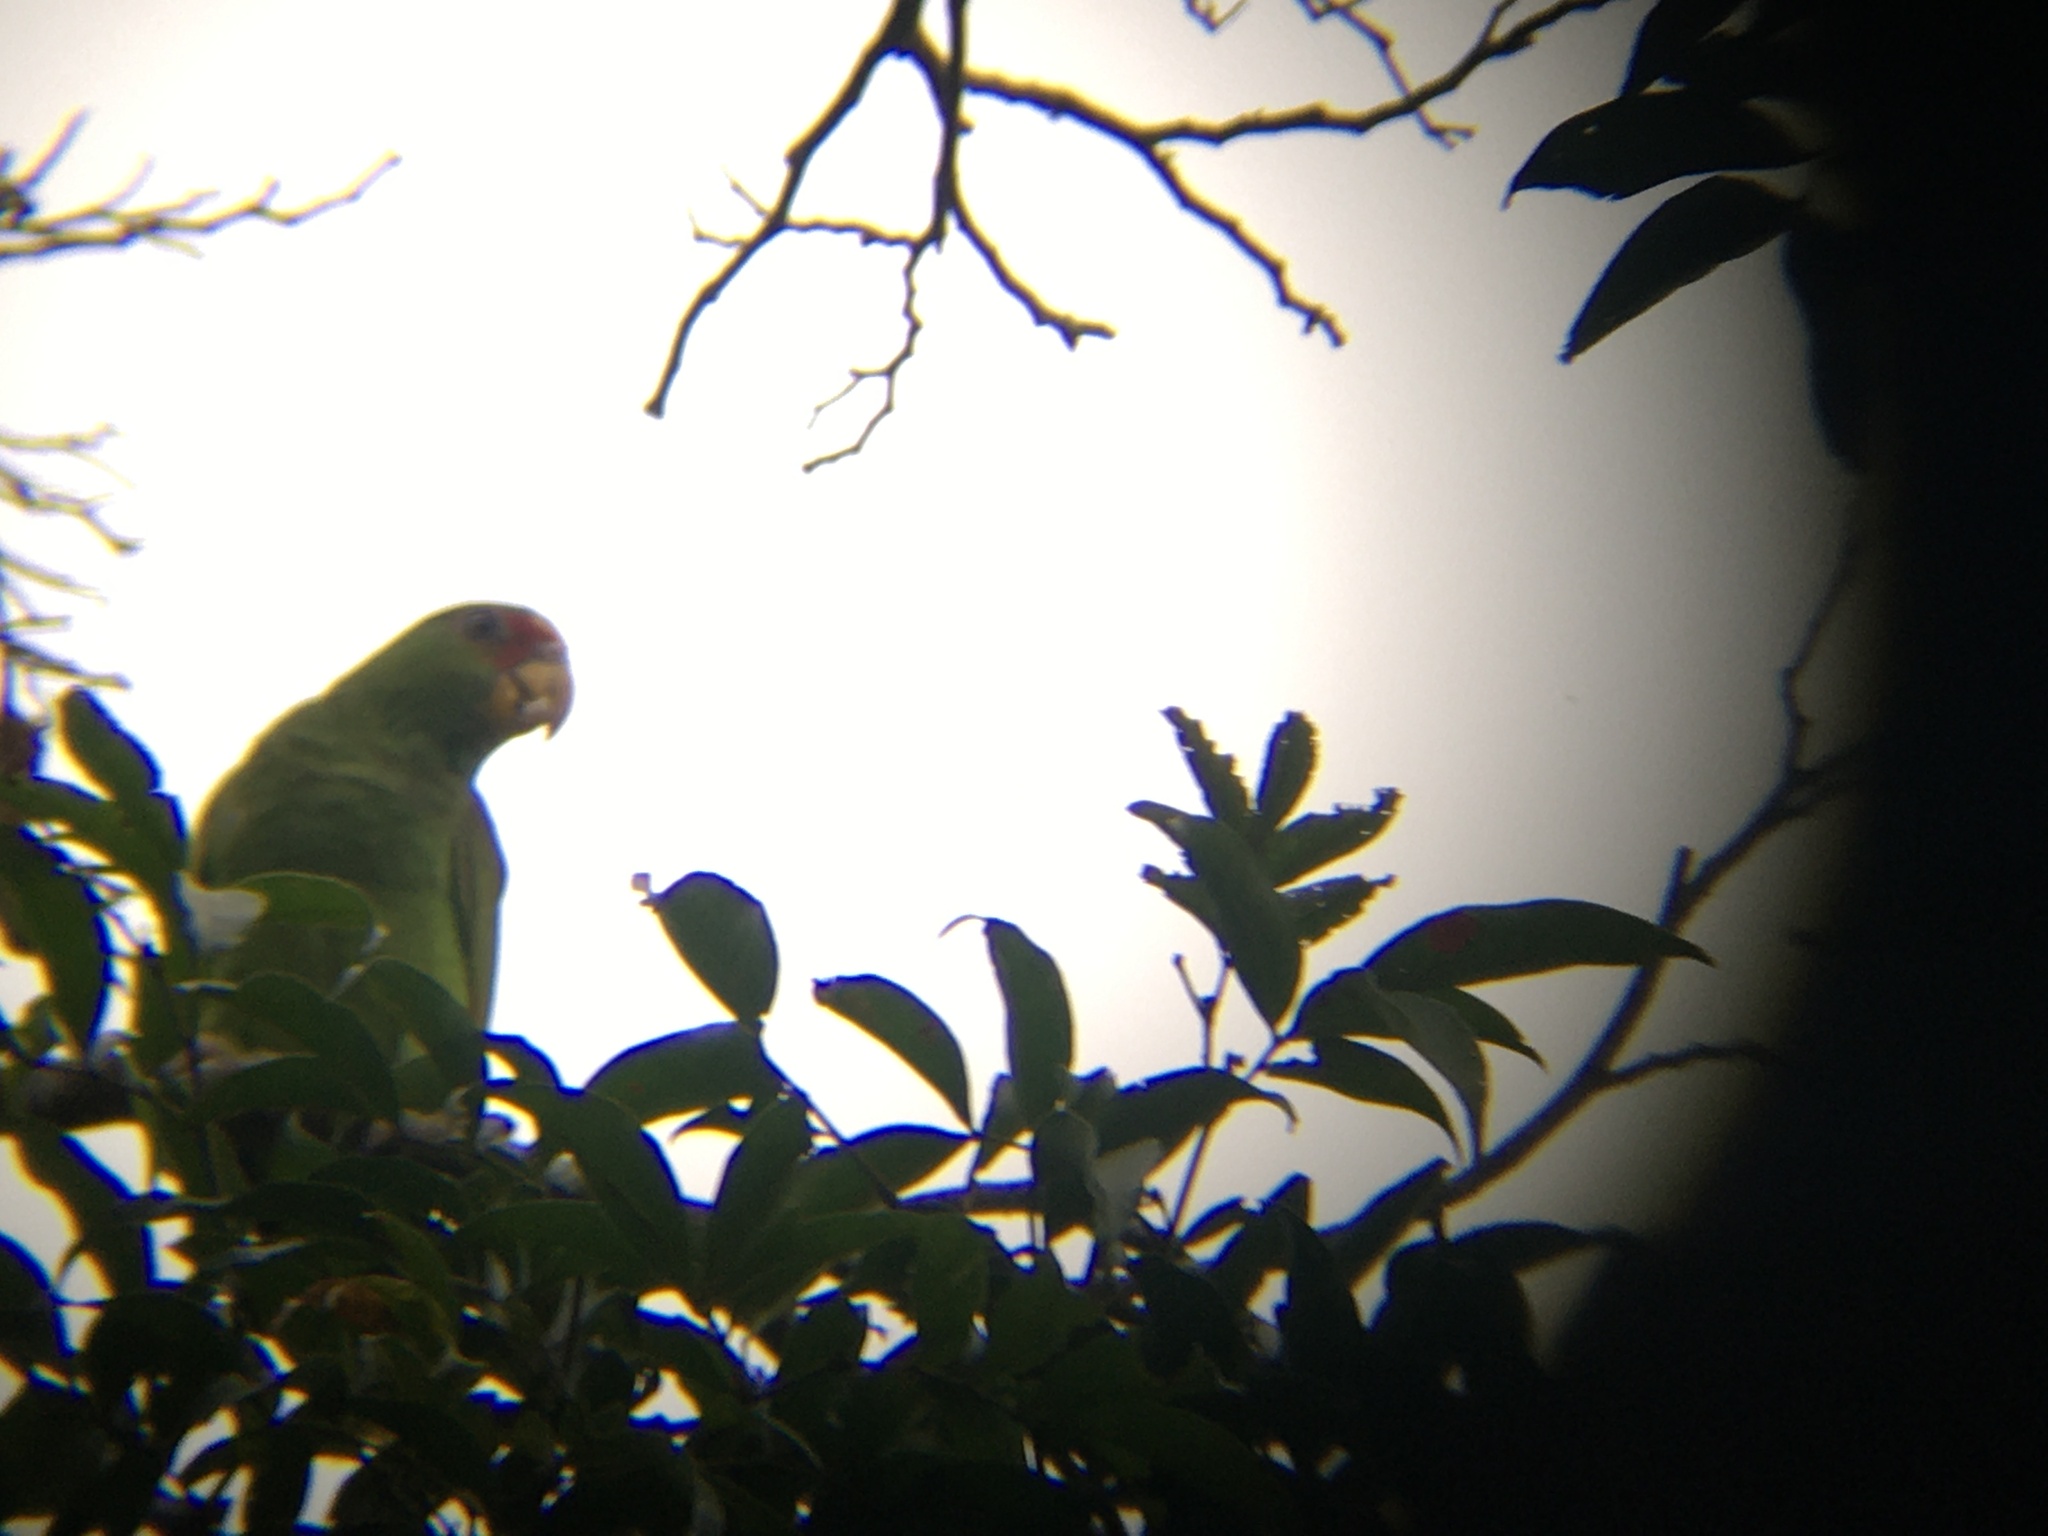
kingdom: Animalia
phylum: Chordata
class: Aves
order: Psittaciformes
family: Psittacidae
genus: Amazona
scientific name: Amazona albifrons
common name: White-fronted amazon
